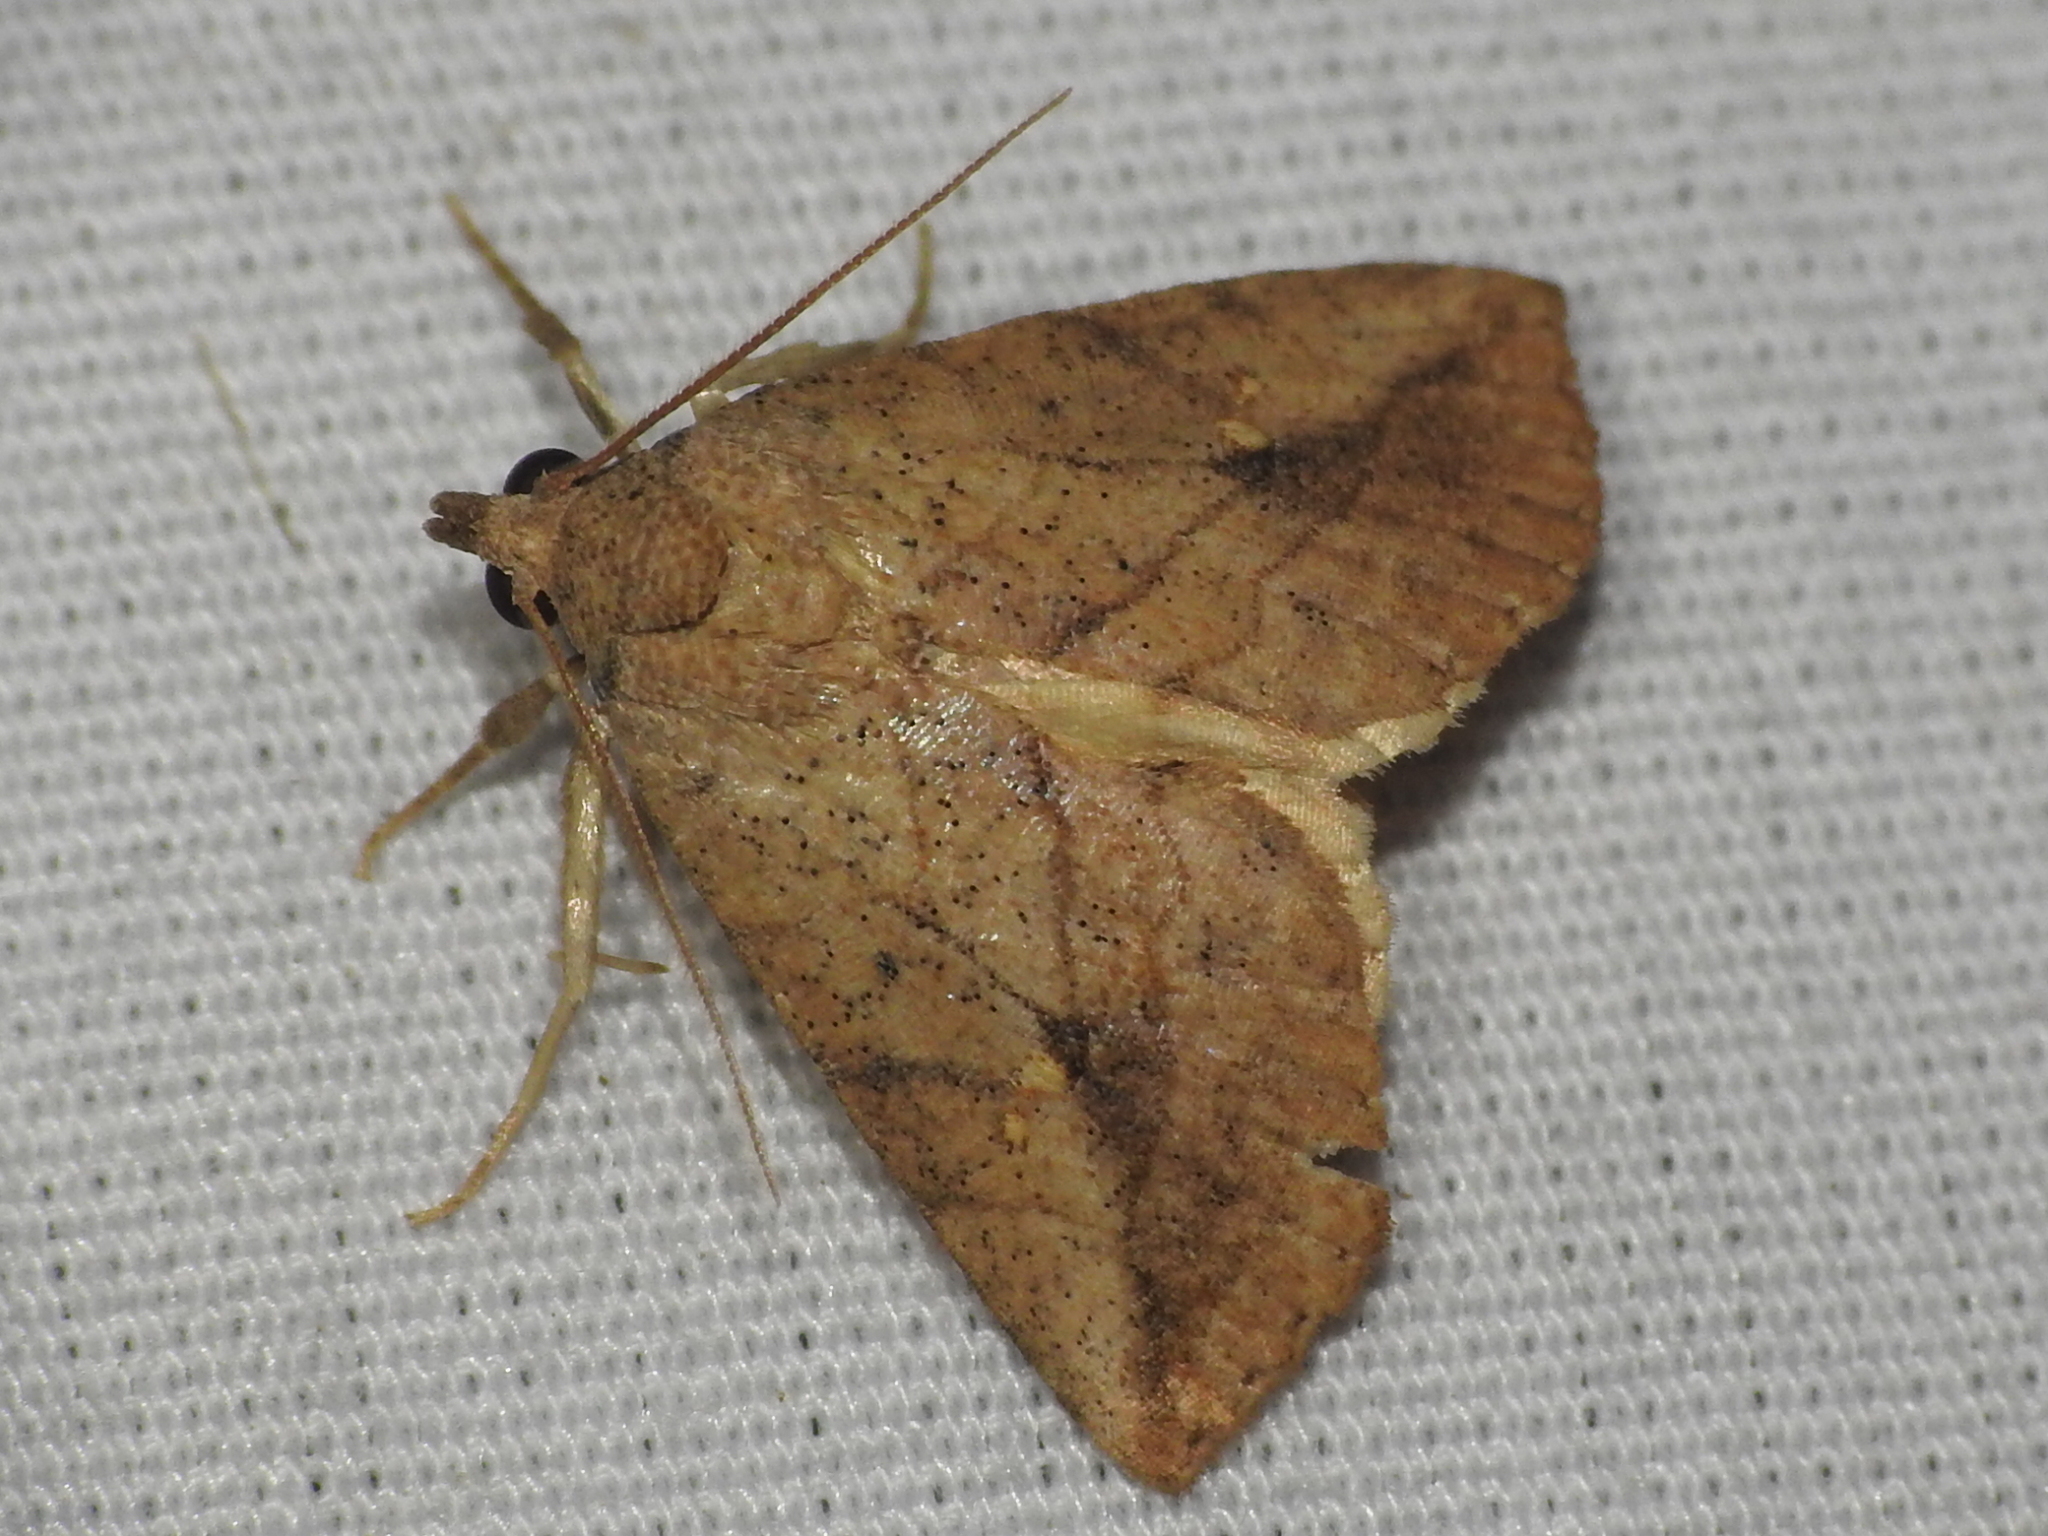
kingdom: Animalia
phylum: Arthropoda
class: Insecta
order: Lepidoptera
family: Erebidae
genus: Isogona
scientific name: Isogona snowi
